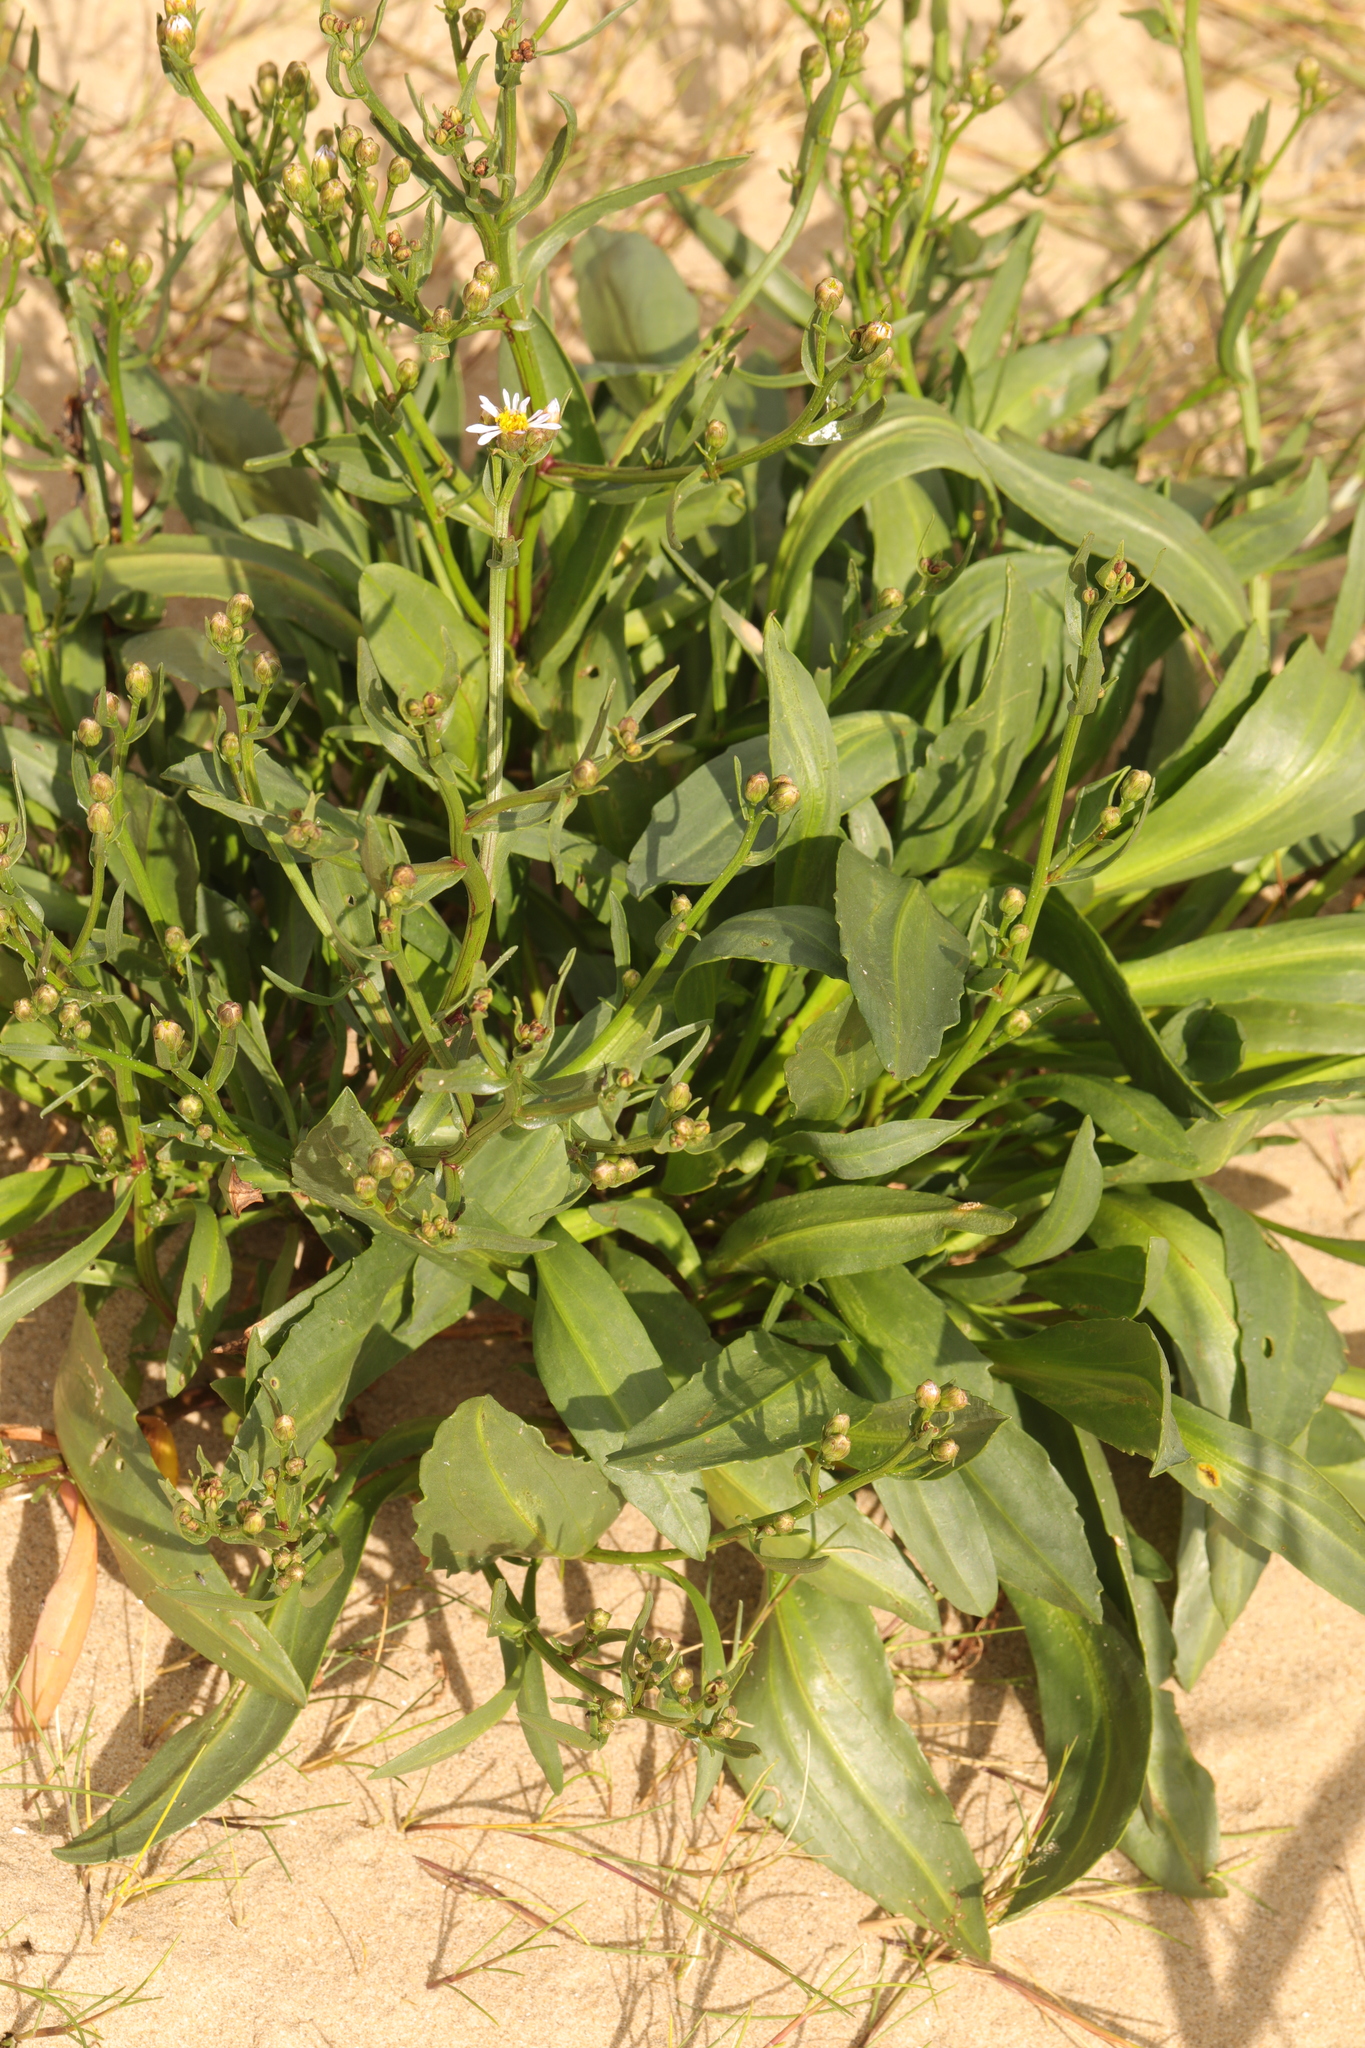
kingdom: Plantae
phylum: Tracheophyta
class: Magnoliopsida
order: Asterales
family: Asteraceae
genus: Tripolium
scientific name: Tripolium pannonicum
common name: Sea aster
